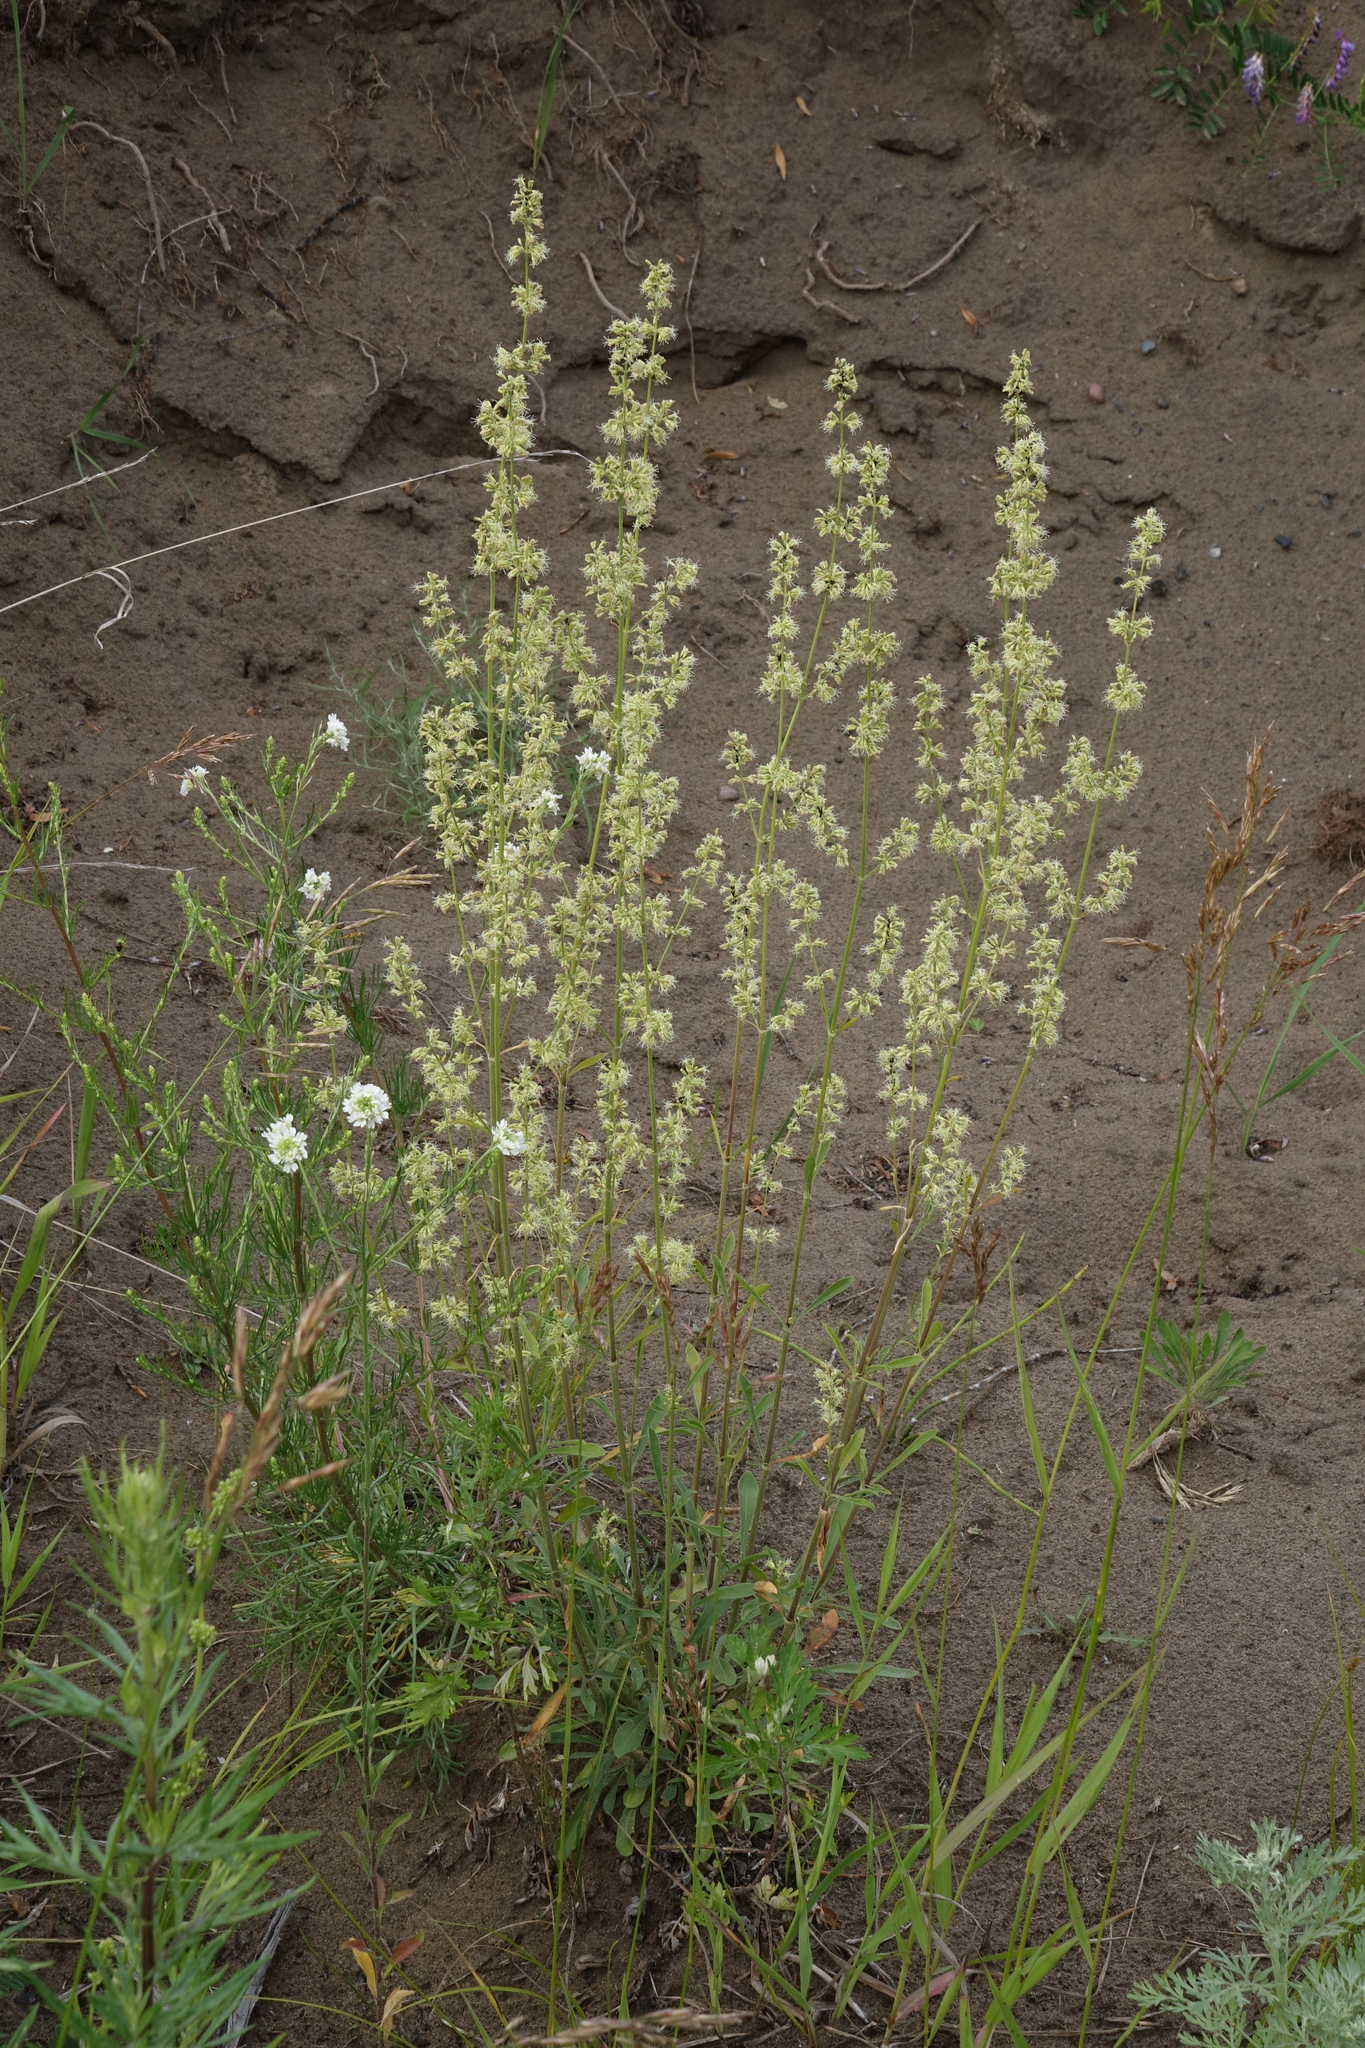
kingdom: Plantae
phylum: Tracheophyta
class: Magnoliopsida
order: Caryophyllales
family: Caryophyllaceae
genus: Silene
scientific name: Silene borysthenica
